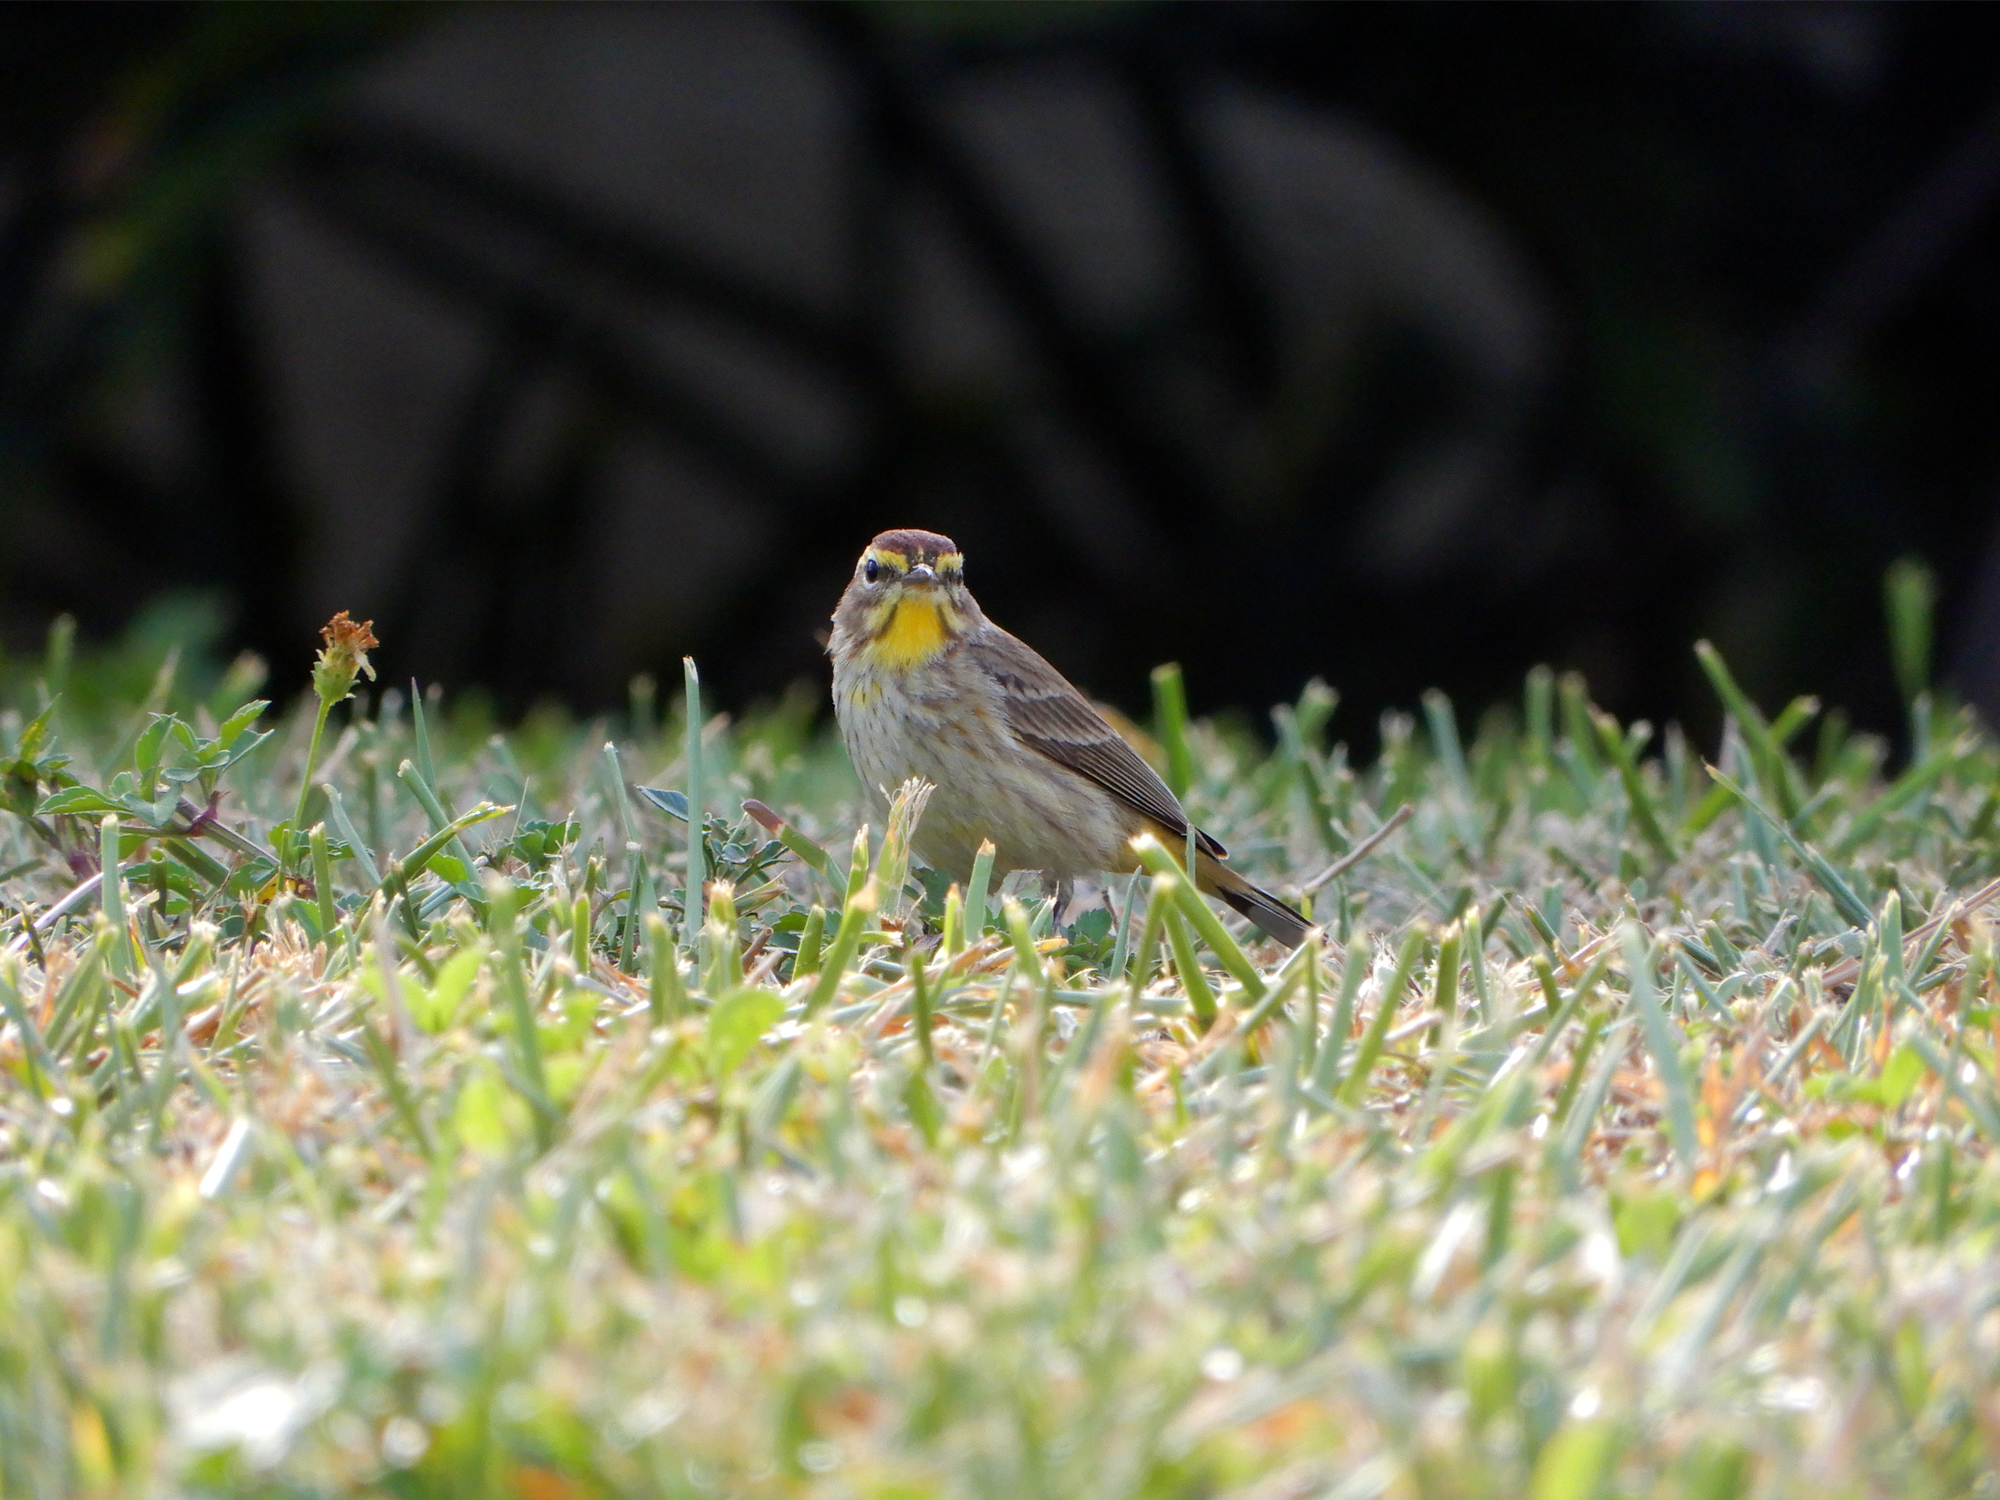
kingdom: Animalia
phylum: Chordata
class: Aves
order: Passeriformes
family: Parulidae
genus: Setophaga
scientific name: Setophaga palmarum
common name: Palm warbler
